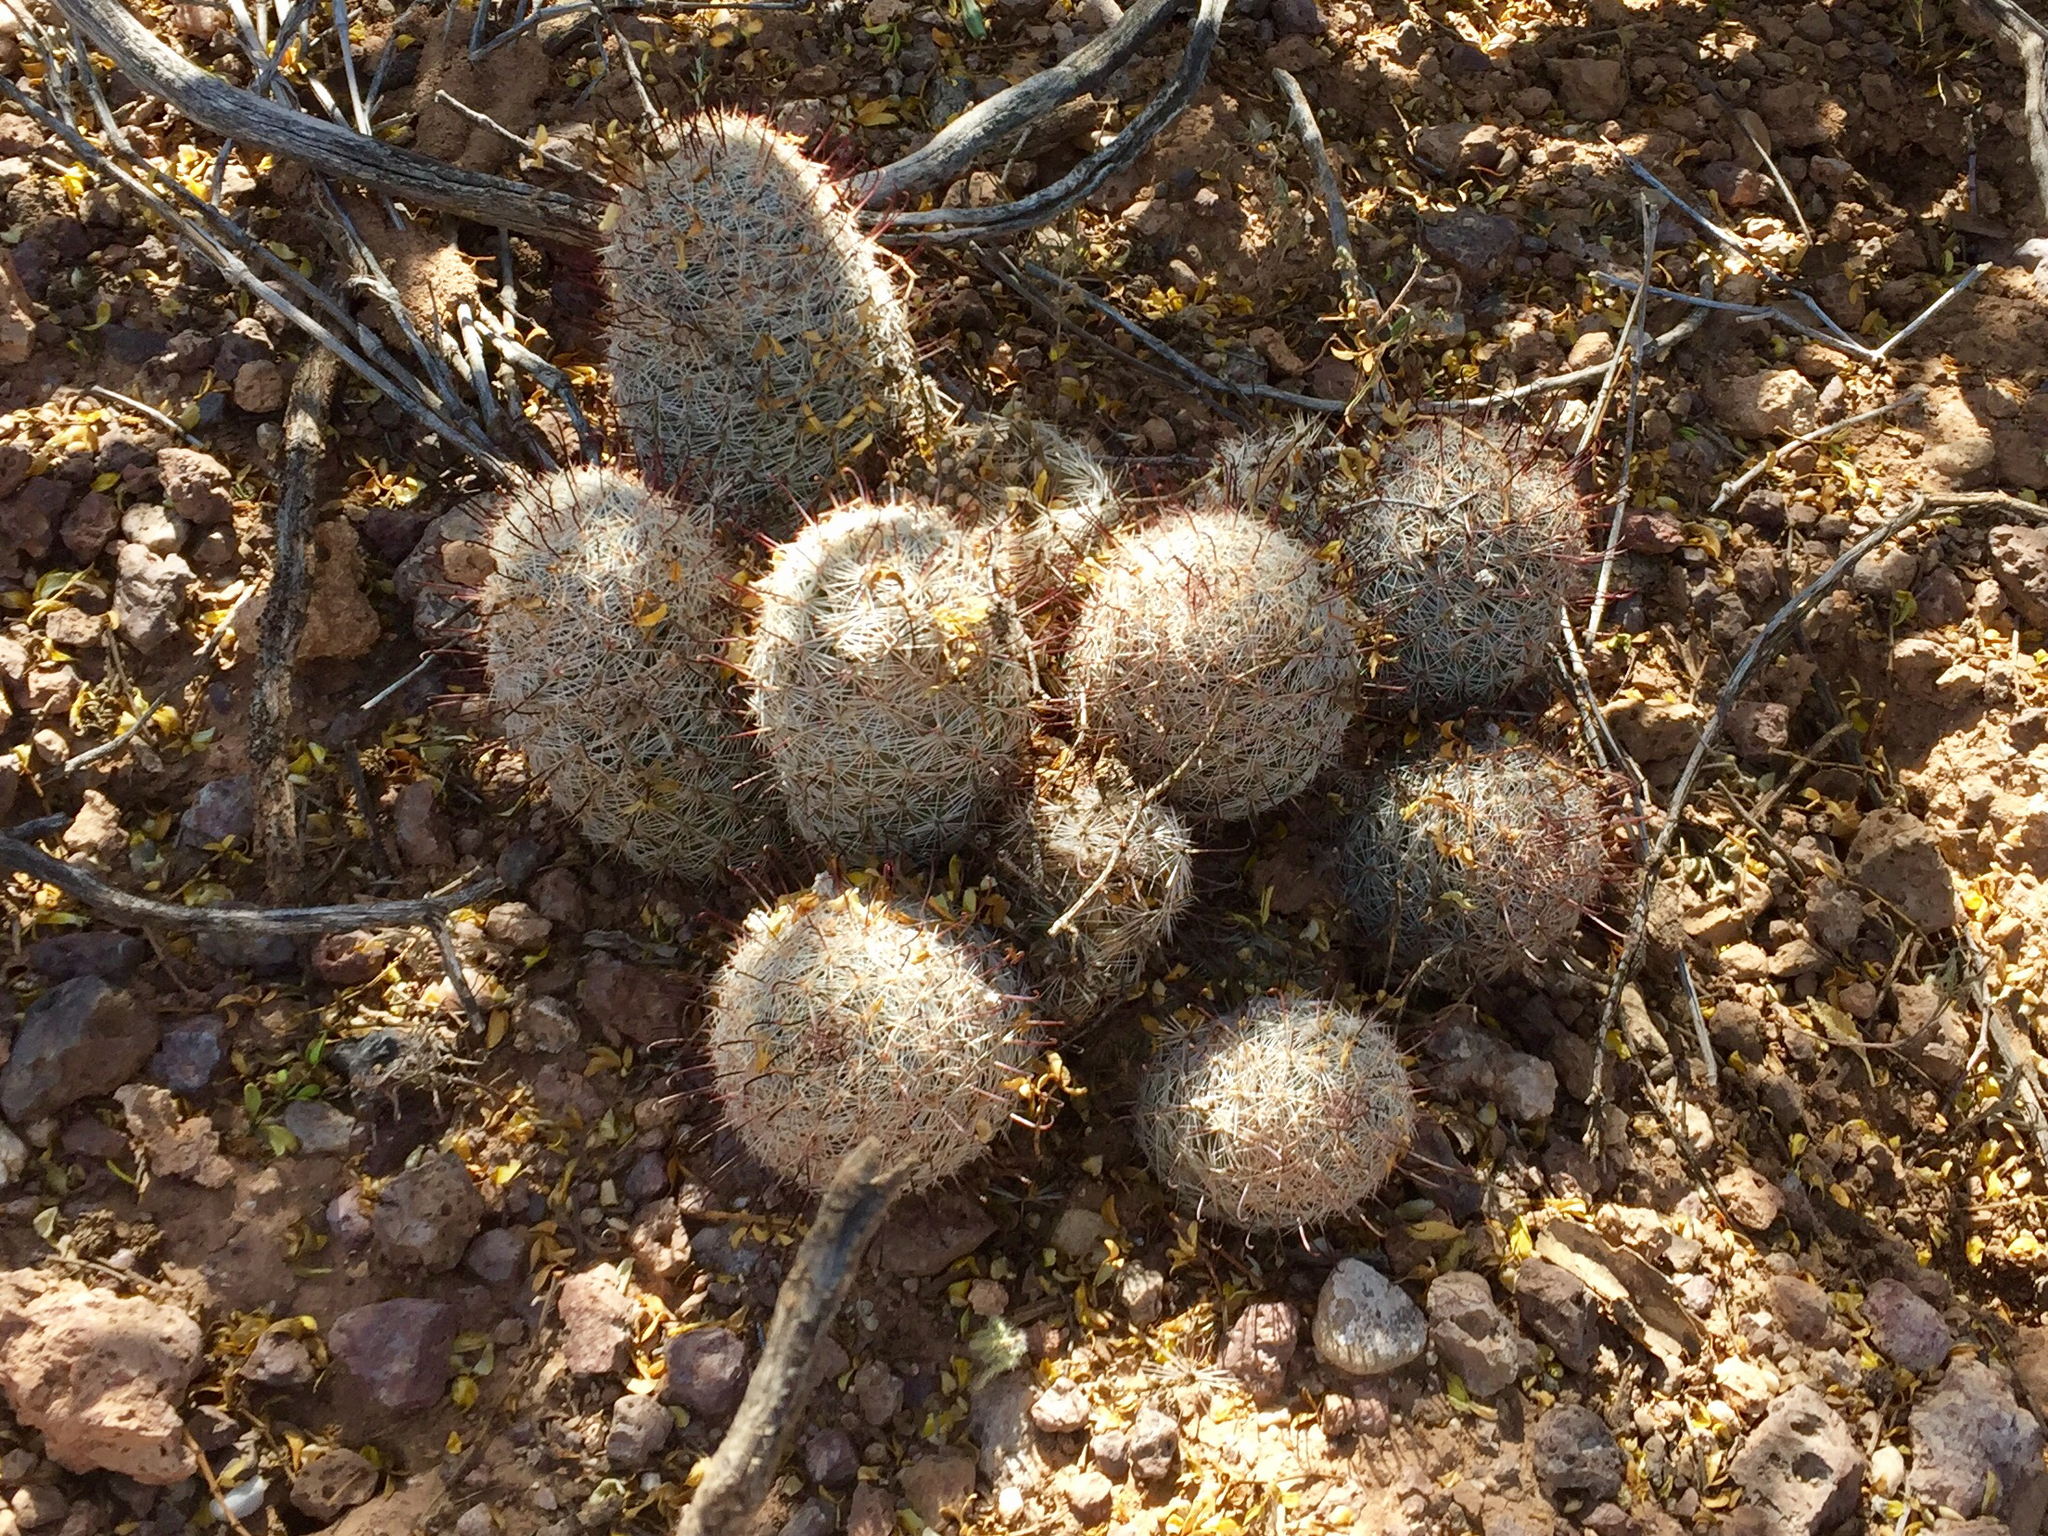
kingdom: Plantae
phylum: Tracheophyta
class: Magnoliopsida
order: Caryophyllales
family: Cactaceae
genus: Cochemiea
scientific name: Cochemiea grahamii
